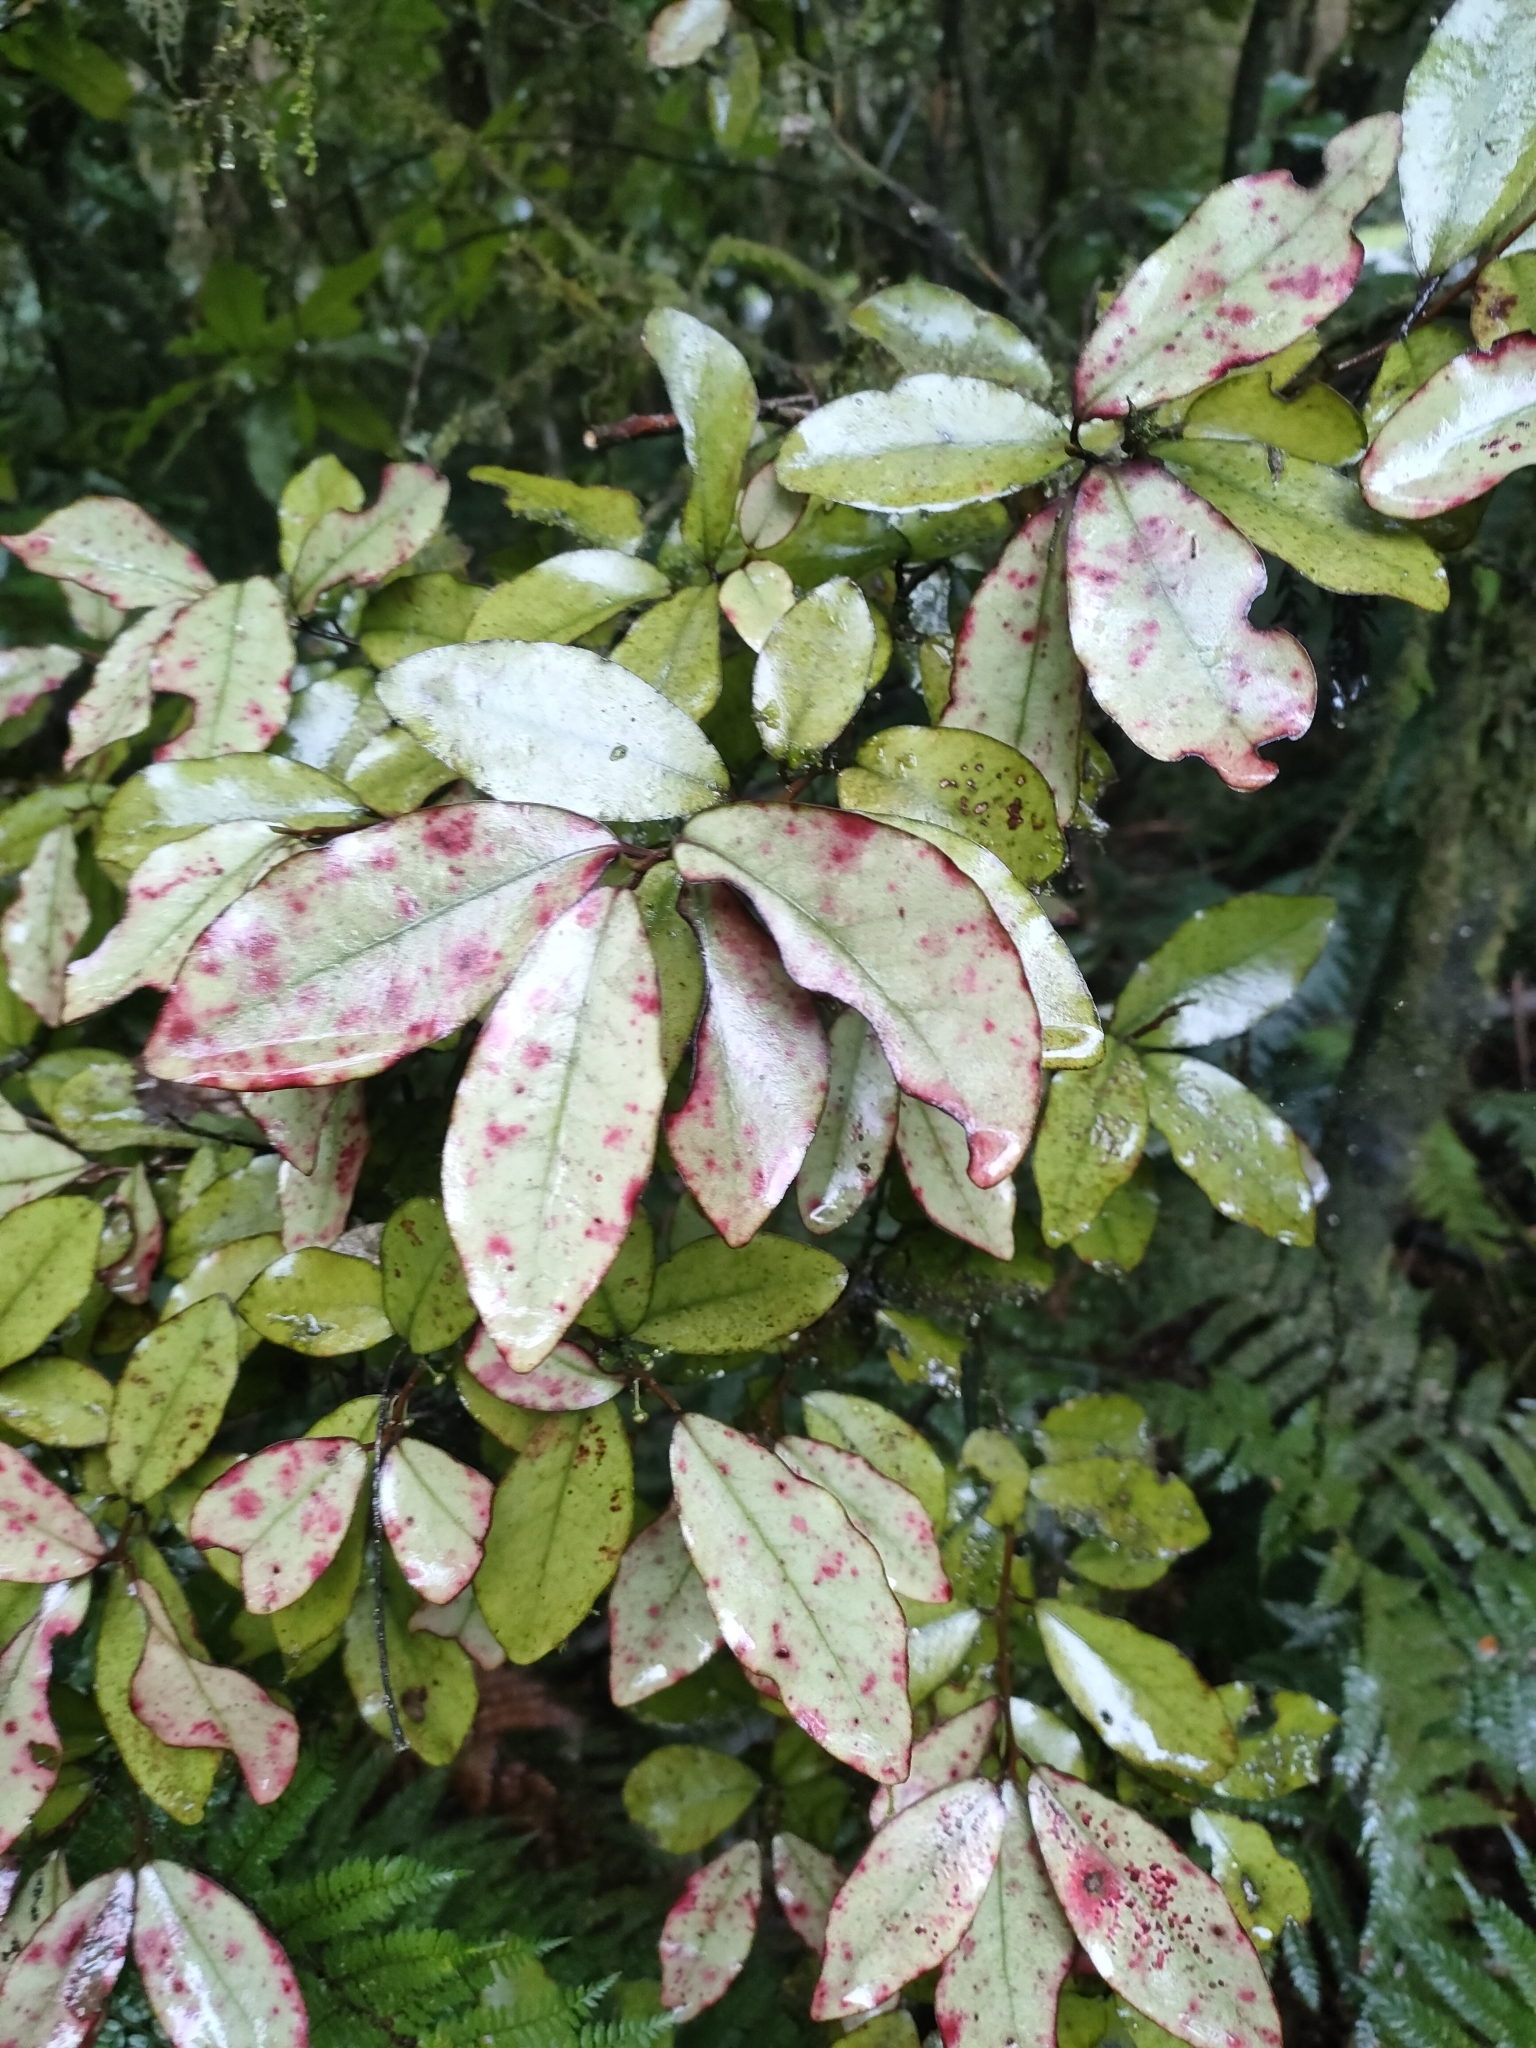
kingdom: Plantae
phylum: Tracheophyta
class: Magnoliopsida
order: Canellales
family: Winteraceae
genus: Pseudowintera
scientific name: Pseudowintera colorata
